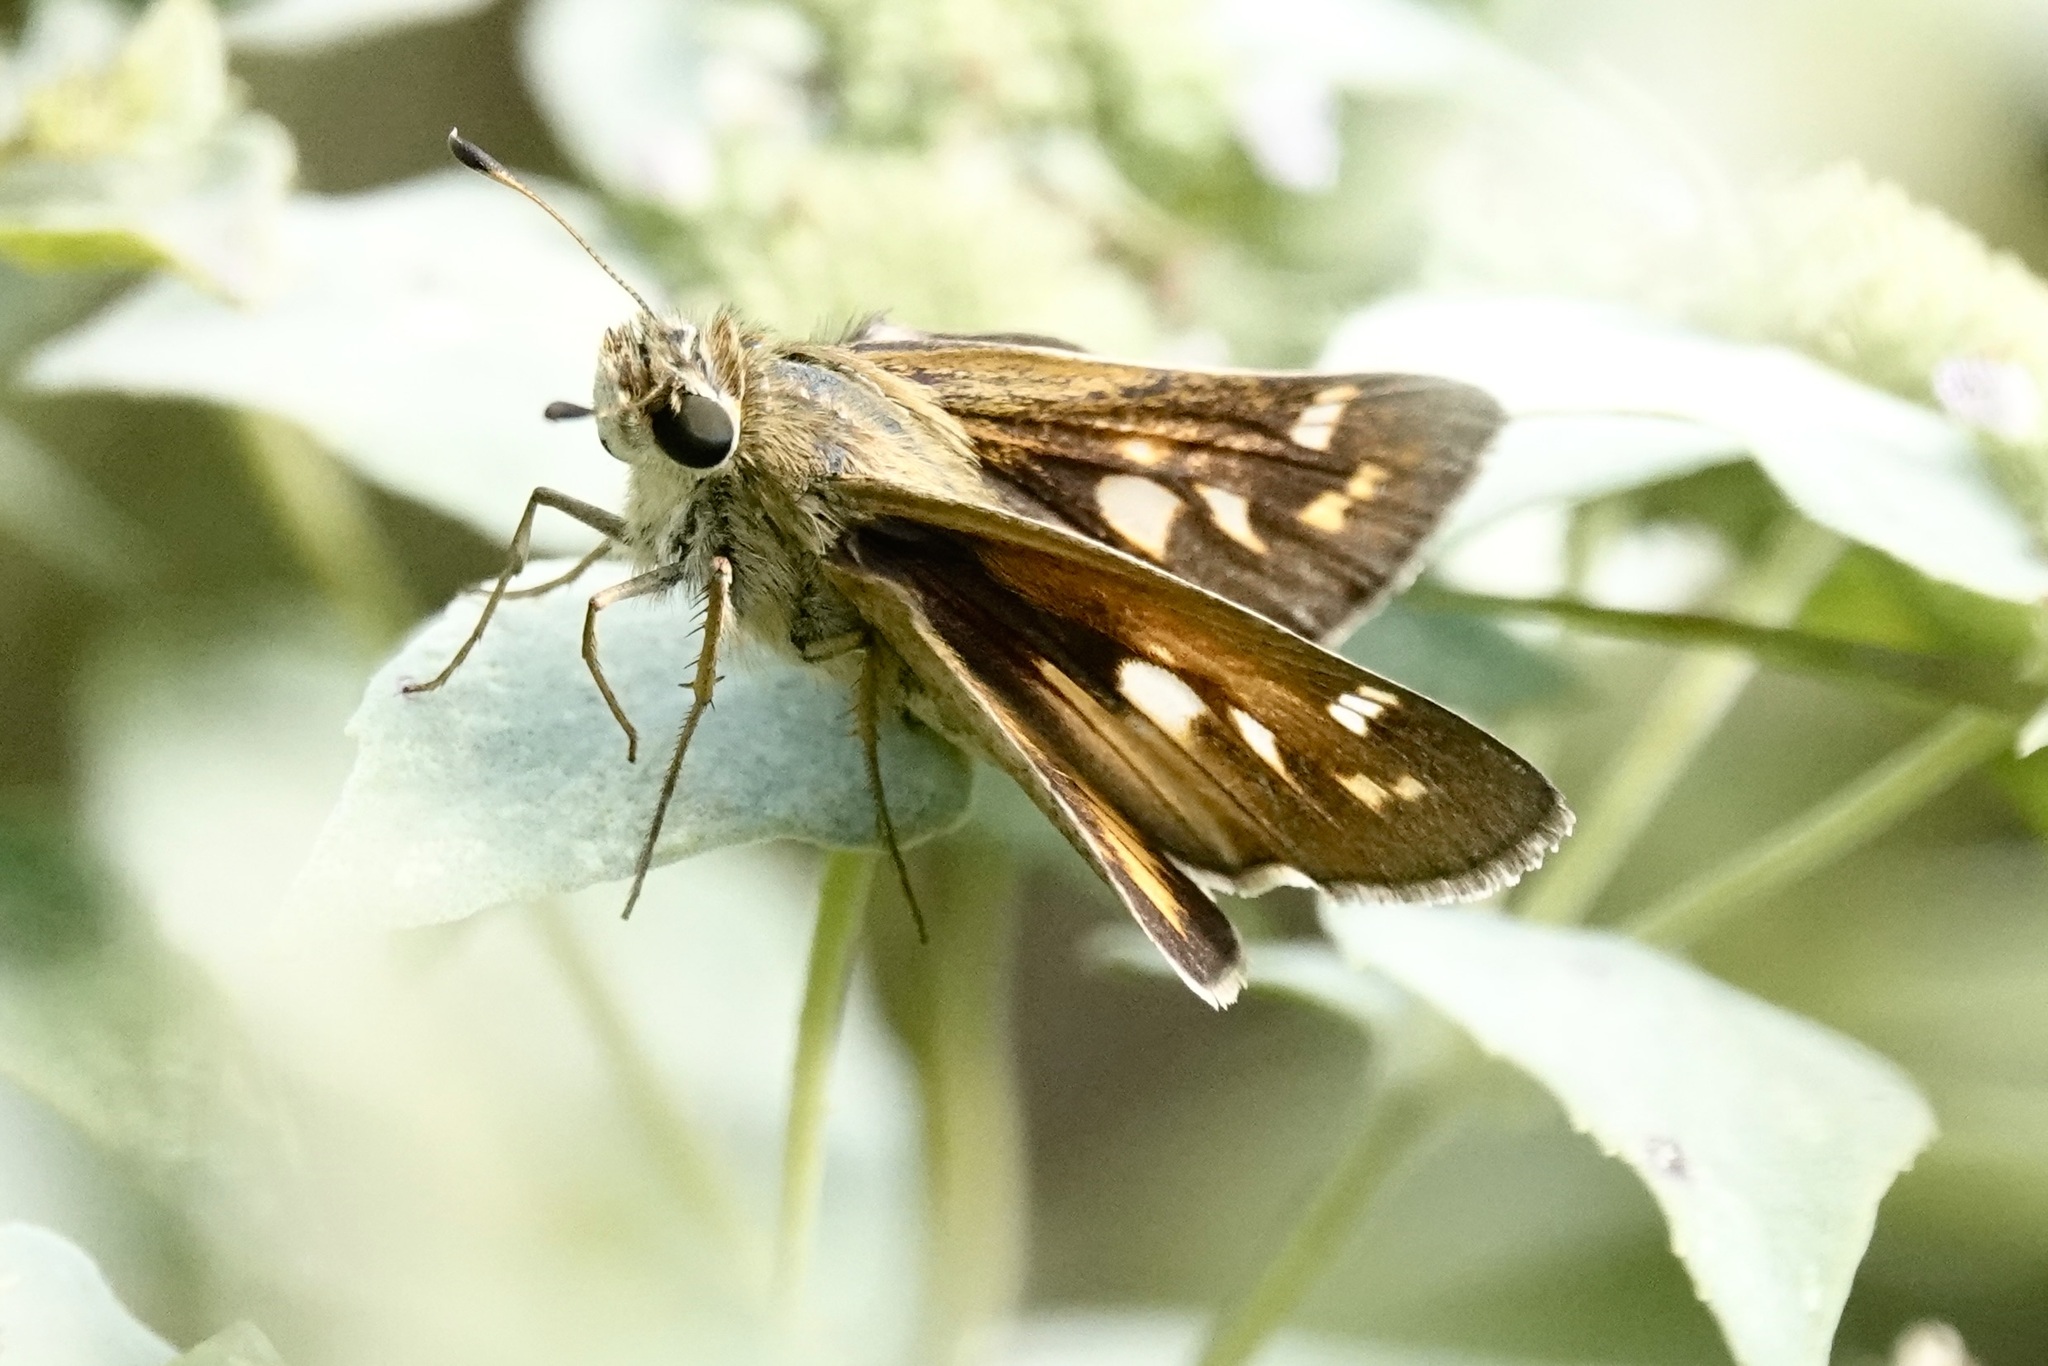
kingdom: Animalia
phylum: Arthropoda
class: Insecta
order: Lepidoptera
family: Hesperiidae
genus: Atalopedes
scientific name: Atalopedes
